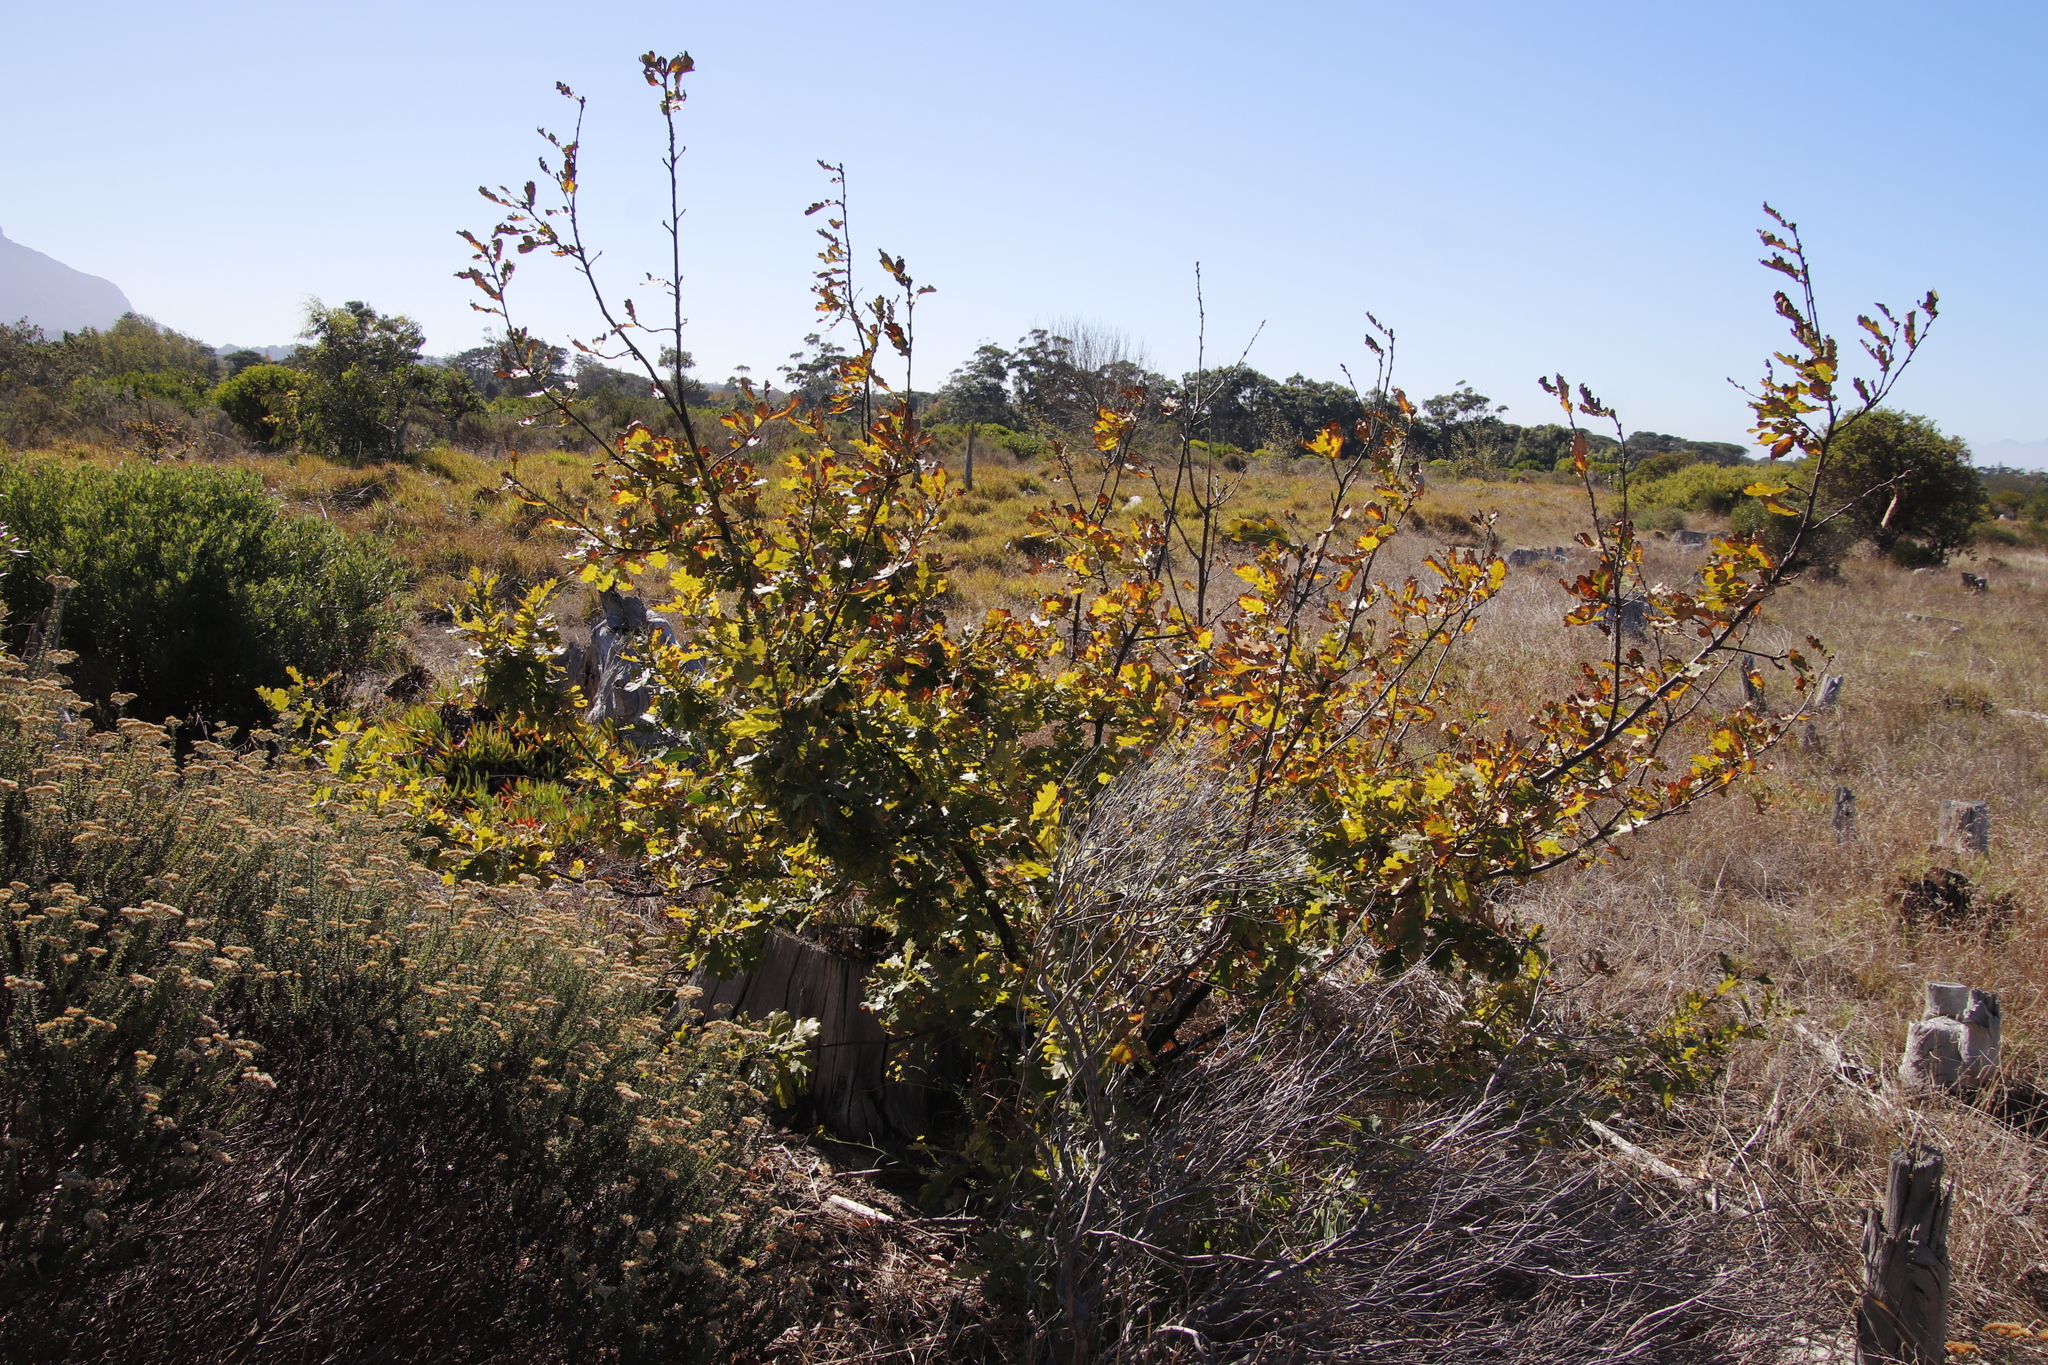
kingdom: Plantae
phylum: Tracheophyta
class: Magnoliopsida
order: Fagales
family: Fagaceae
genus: Quercus
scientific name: Quercus robur
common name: Pedunculate oak
